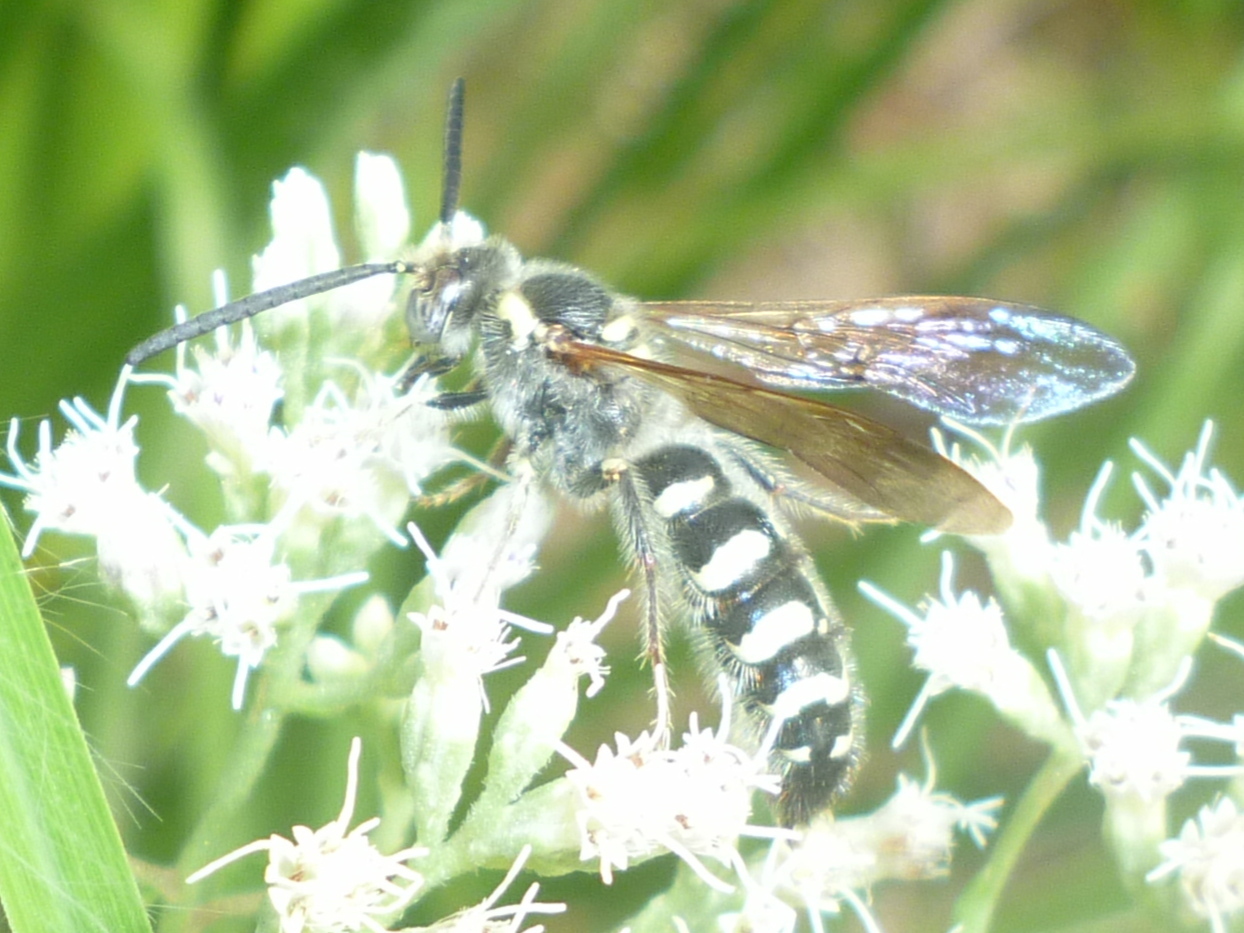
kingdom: Animalia
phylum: Arthropoda
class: Insecta
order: Hymenoptera
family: Scoliidae
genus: Colpa
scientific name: Colpa octomaculata
